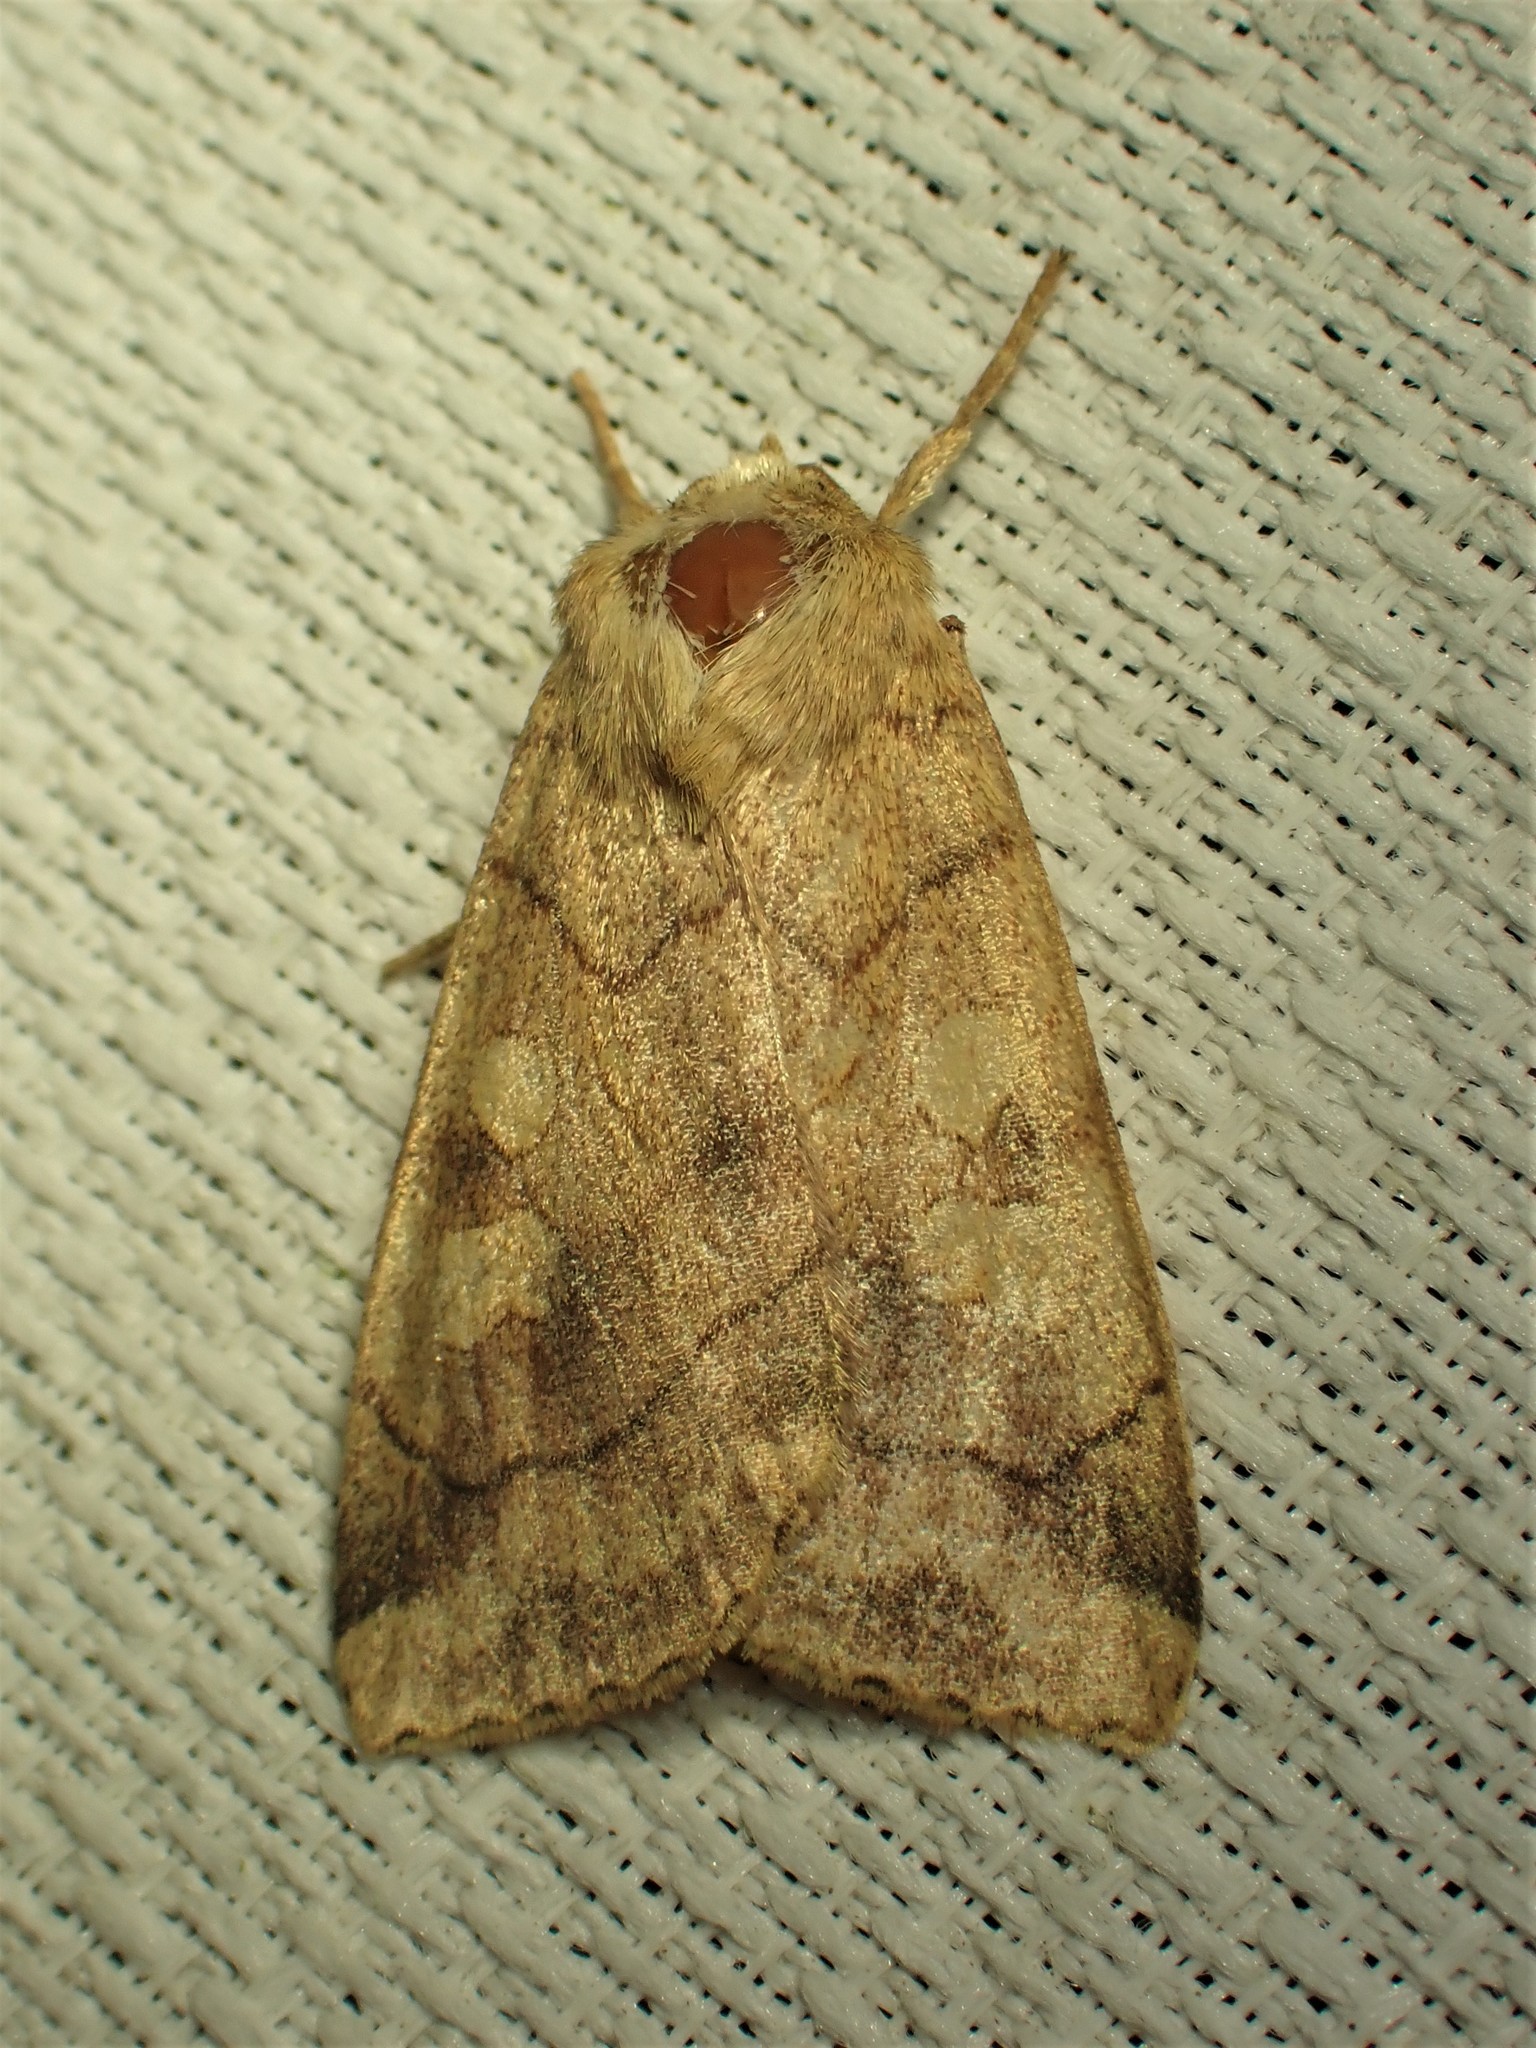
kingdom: Animalia
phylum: Arthropoda
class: Insecta
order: Lepidoptera
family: Noctuidae
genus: Enargia
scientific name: Enargia decolor
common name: Aspen twoleaf tier moth
